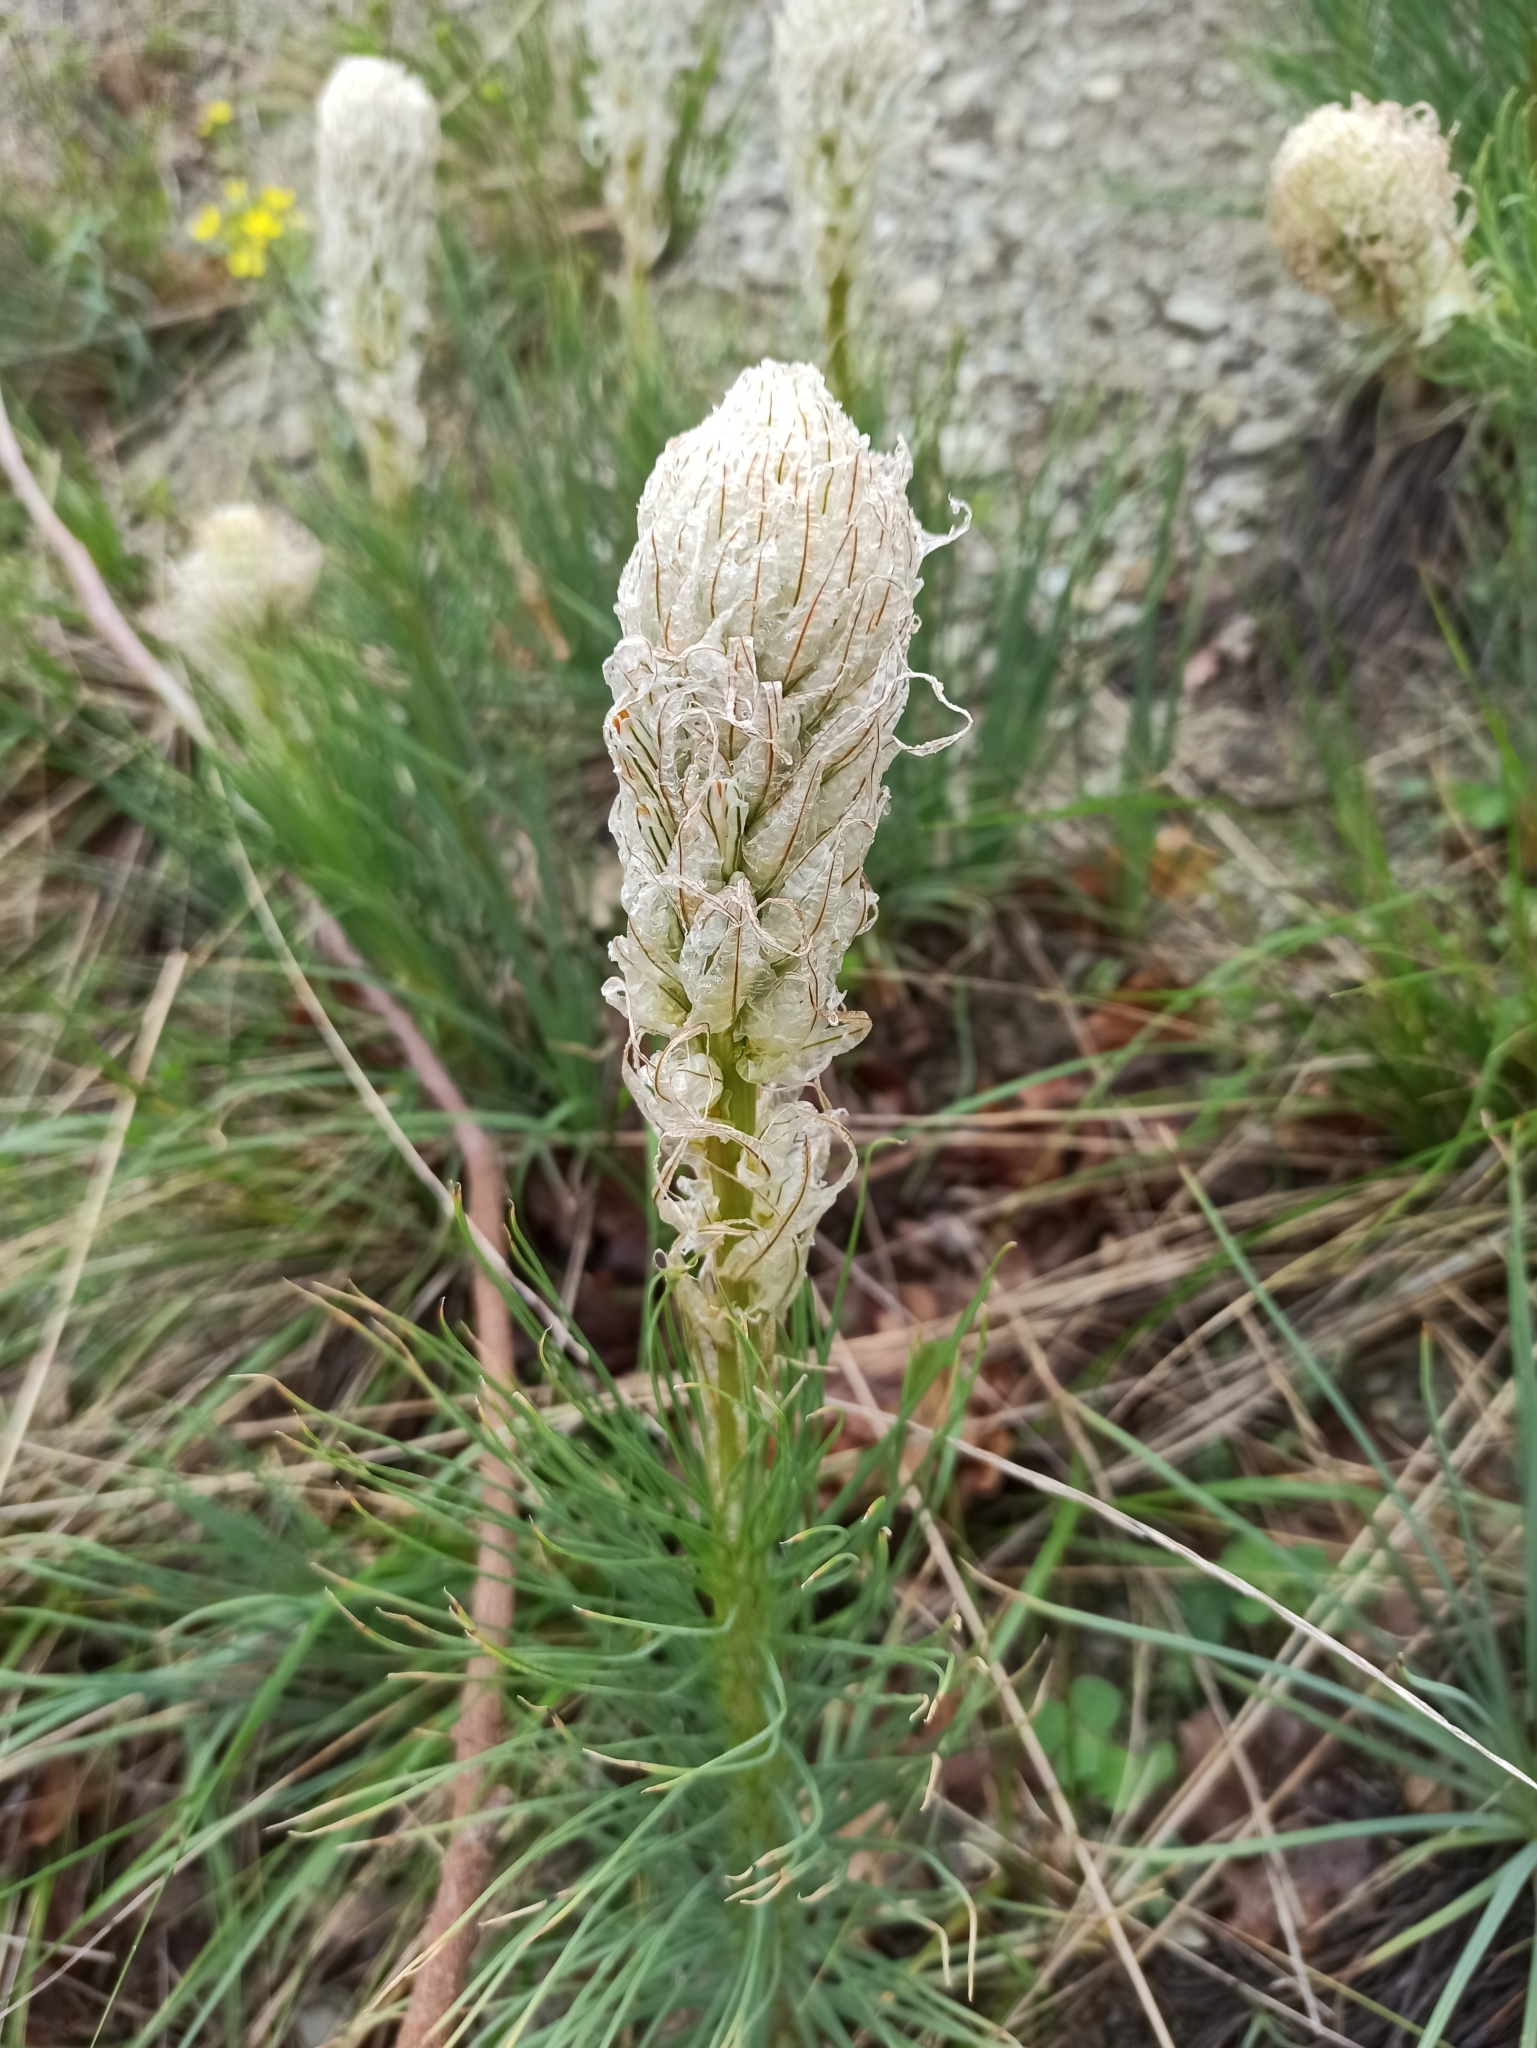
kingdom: Plantae
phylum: Tracheophyta
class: Liliopsida
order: Asparagales
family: Asphodelaceae
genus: Asphodeline
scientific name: Asphodeline taurica
